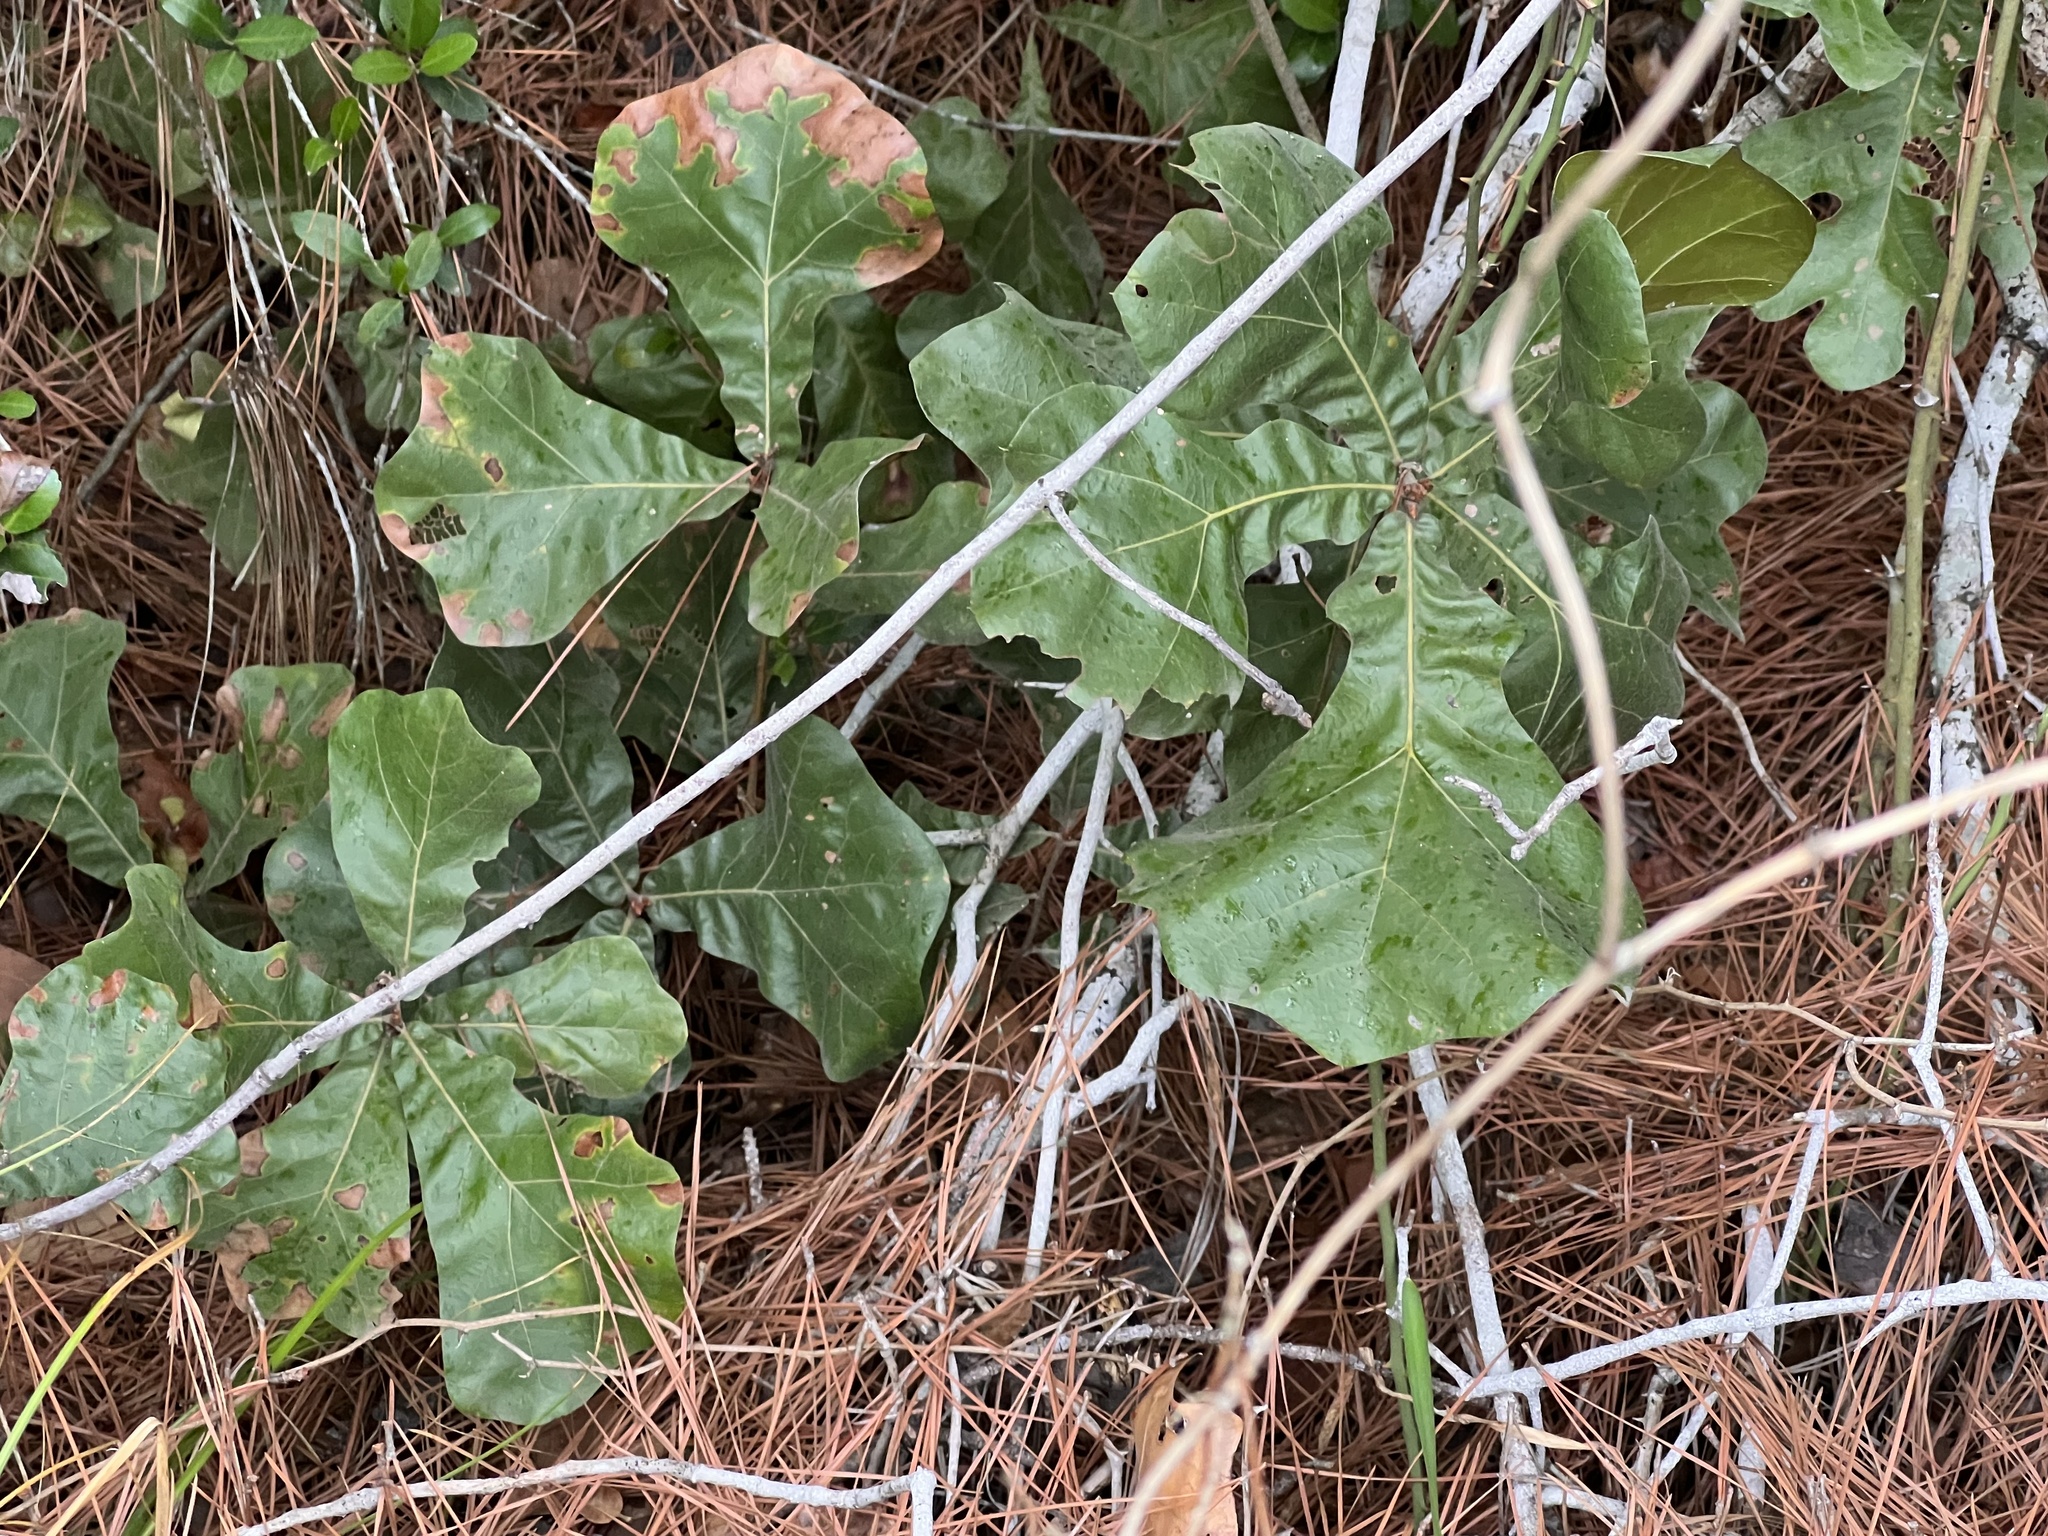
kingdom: Plantae
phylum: Tracheophyta
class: Magnoliopsida
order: Fagales
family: Fagaceae
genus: Quercus
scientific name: Quercus marilandica
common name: Blackjack oak
